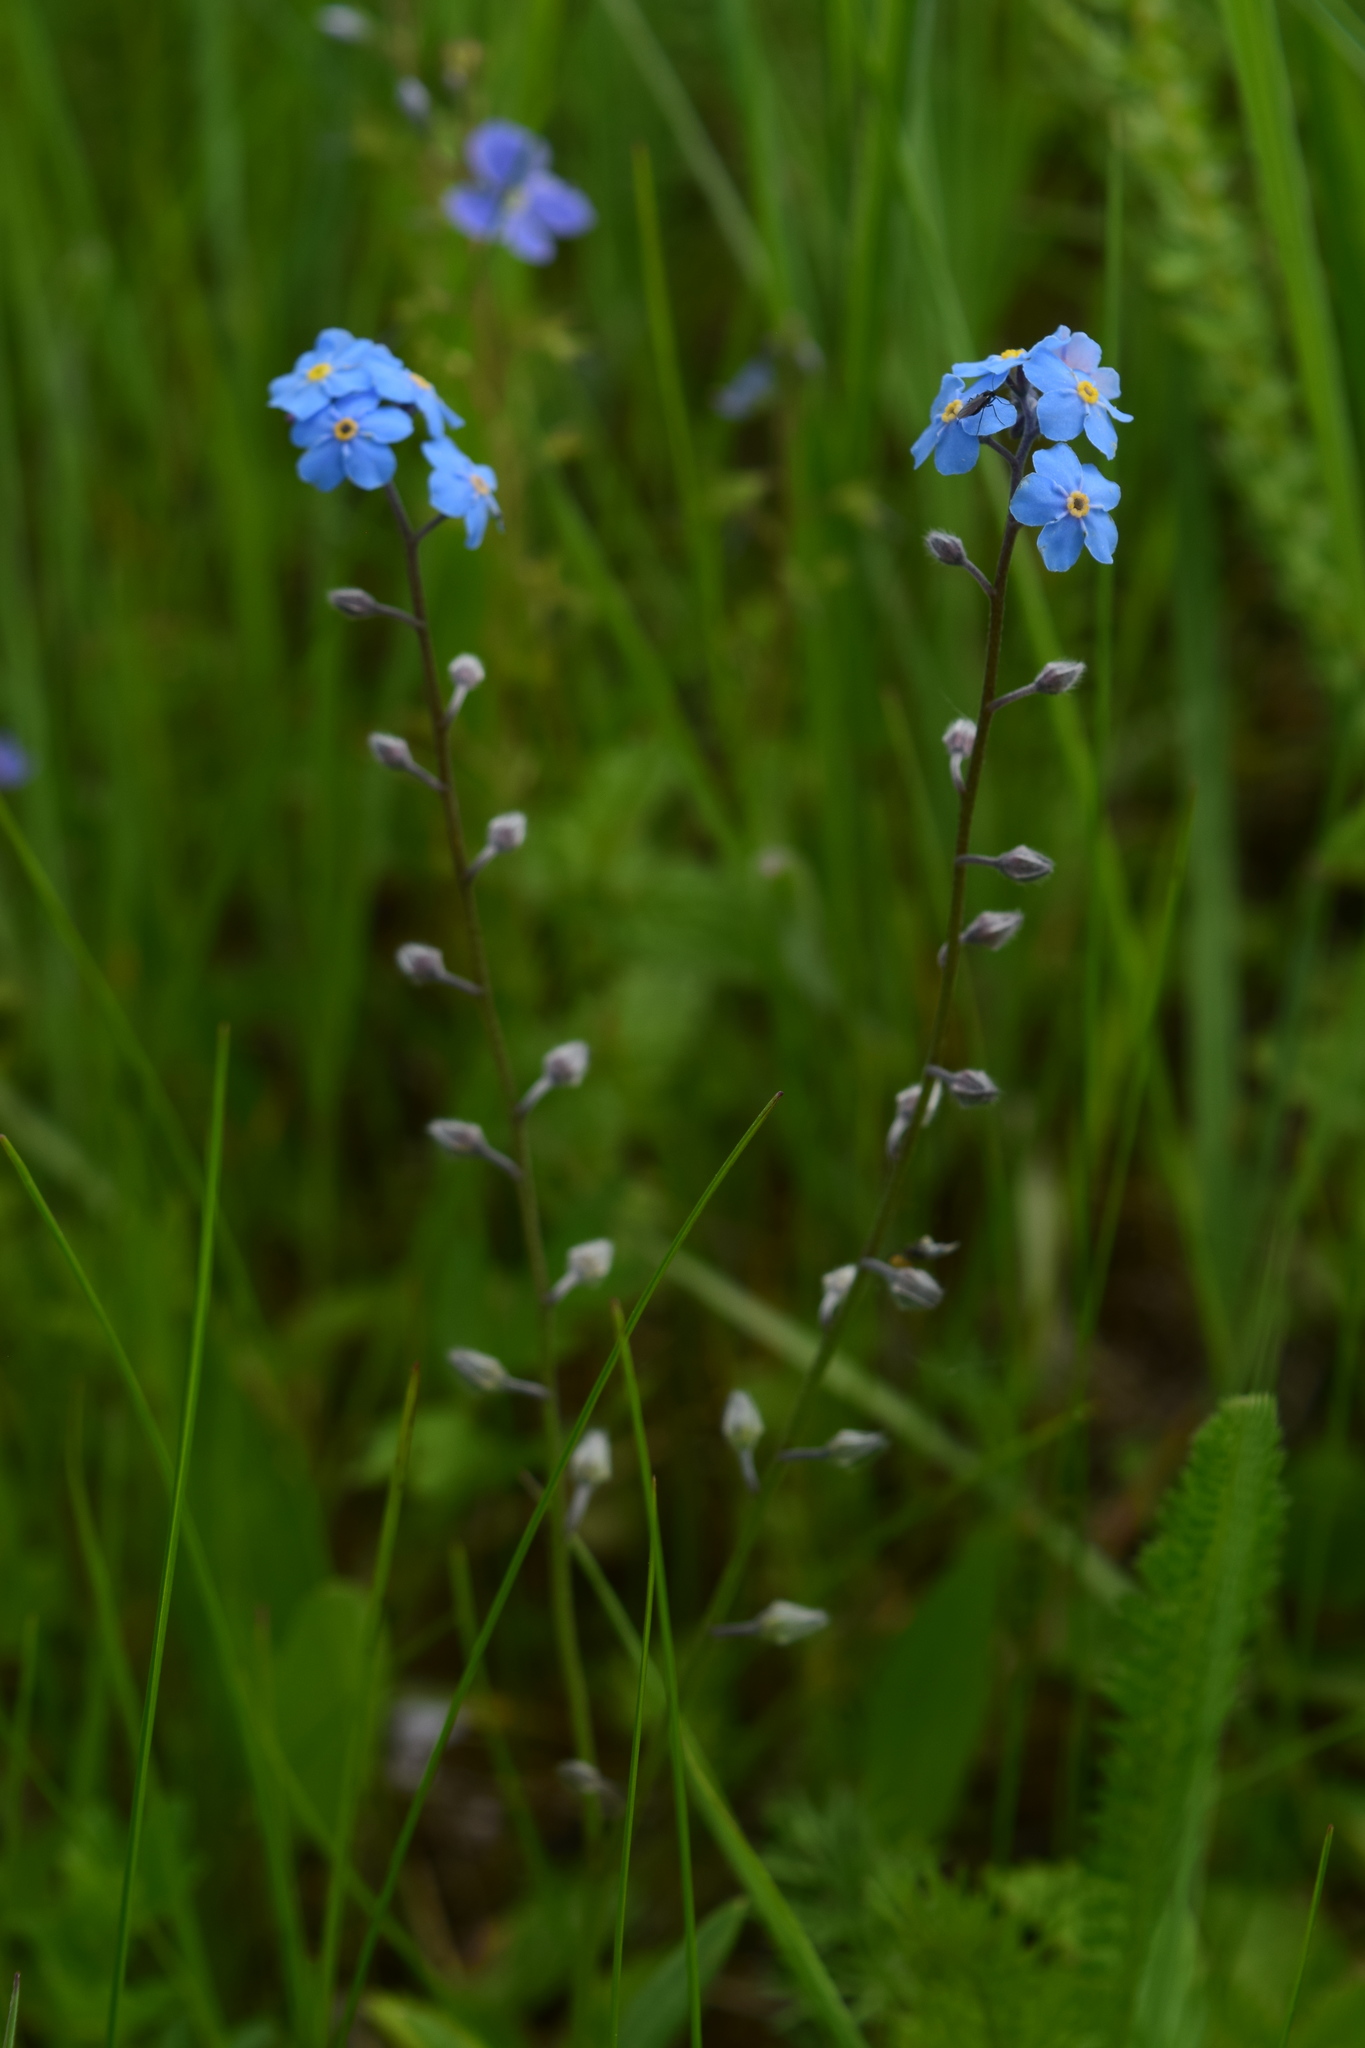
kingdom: Plantae
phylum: Tracheophyta
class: Magnoliopsida
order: Boraginales
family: Boraginaceae
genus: Myosotis
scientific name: Myosotis alpestris
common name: Alpine forget-me-not
